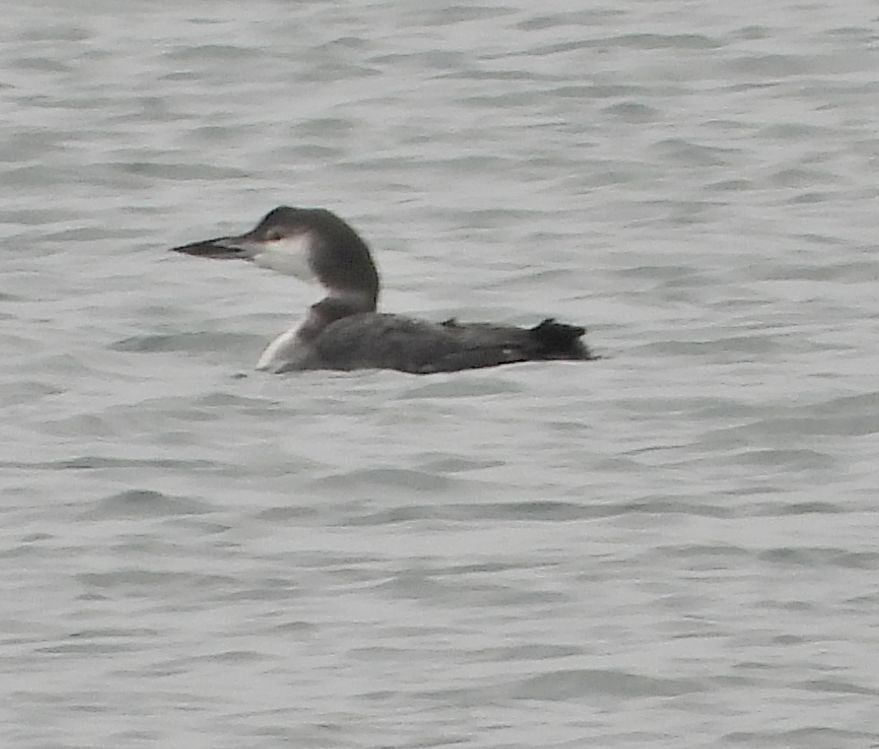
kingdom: Animalia
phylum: Chordata
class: Aves
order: Gaviiformes
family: Gaviidae
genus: Gavia
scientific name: Gavia immer
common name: Common loon
